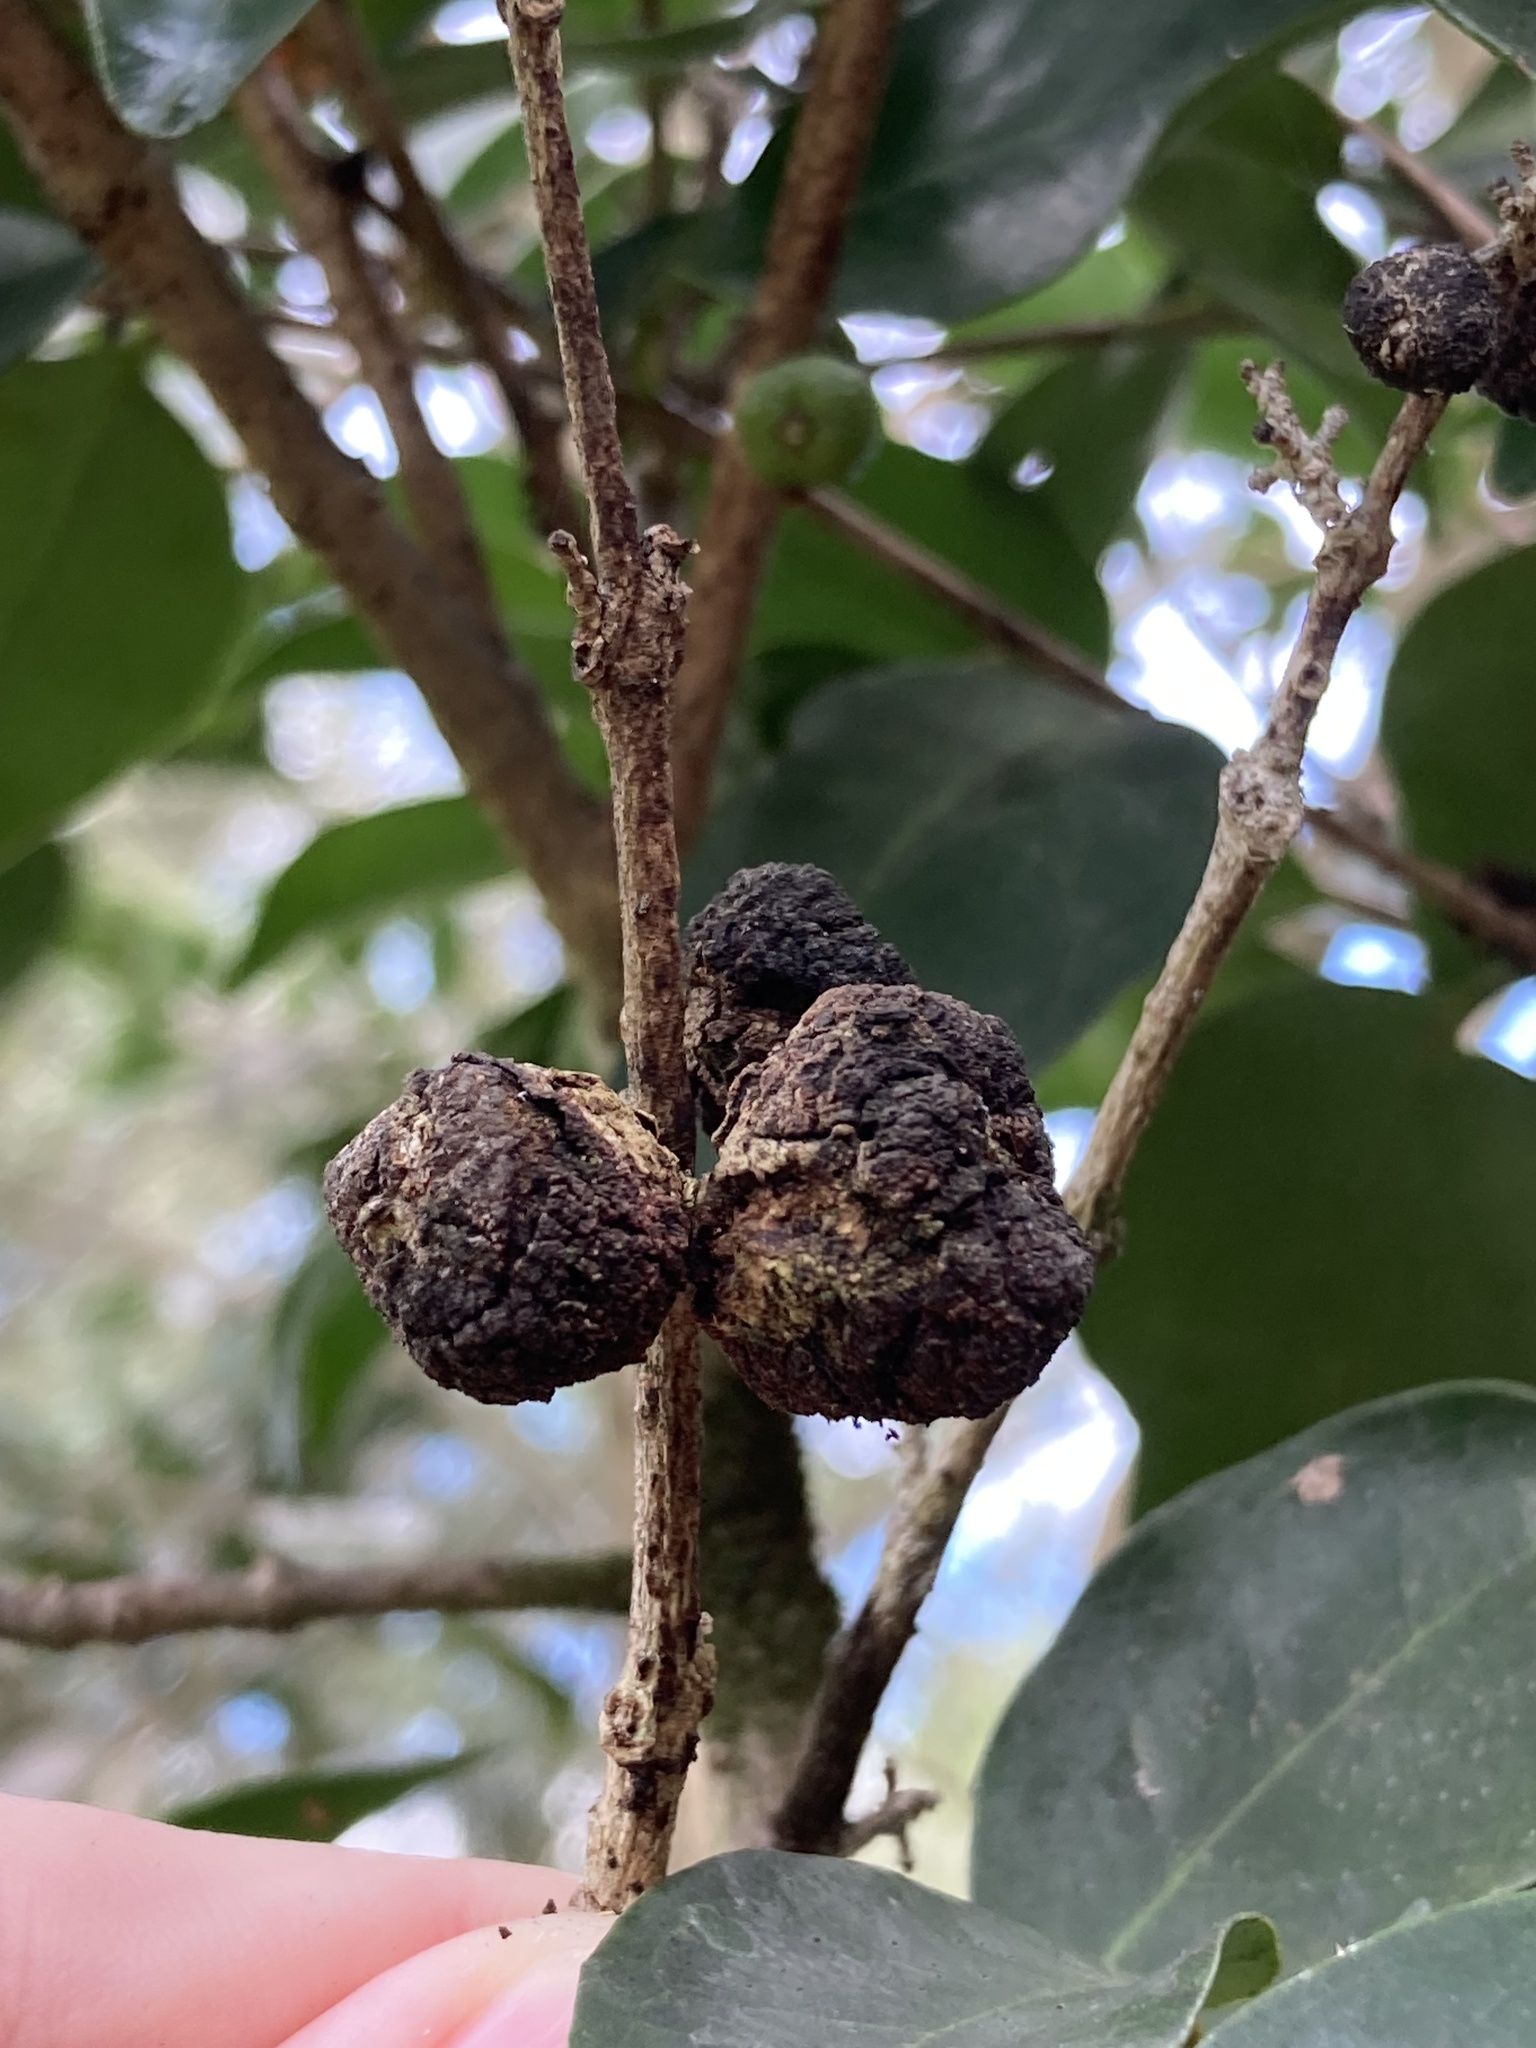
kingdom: Animalia
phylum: Arthropoda
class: Insecta
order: Diptera
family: Cecidomyiidae
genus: Dasineura
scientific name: Dasineura eugeniae
